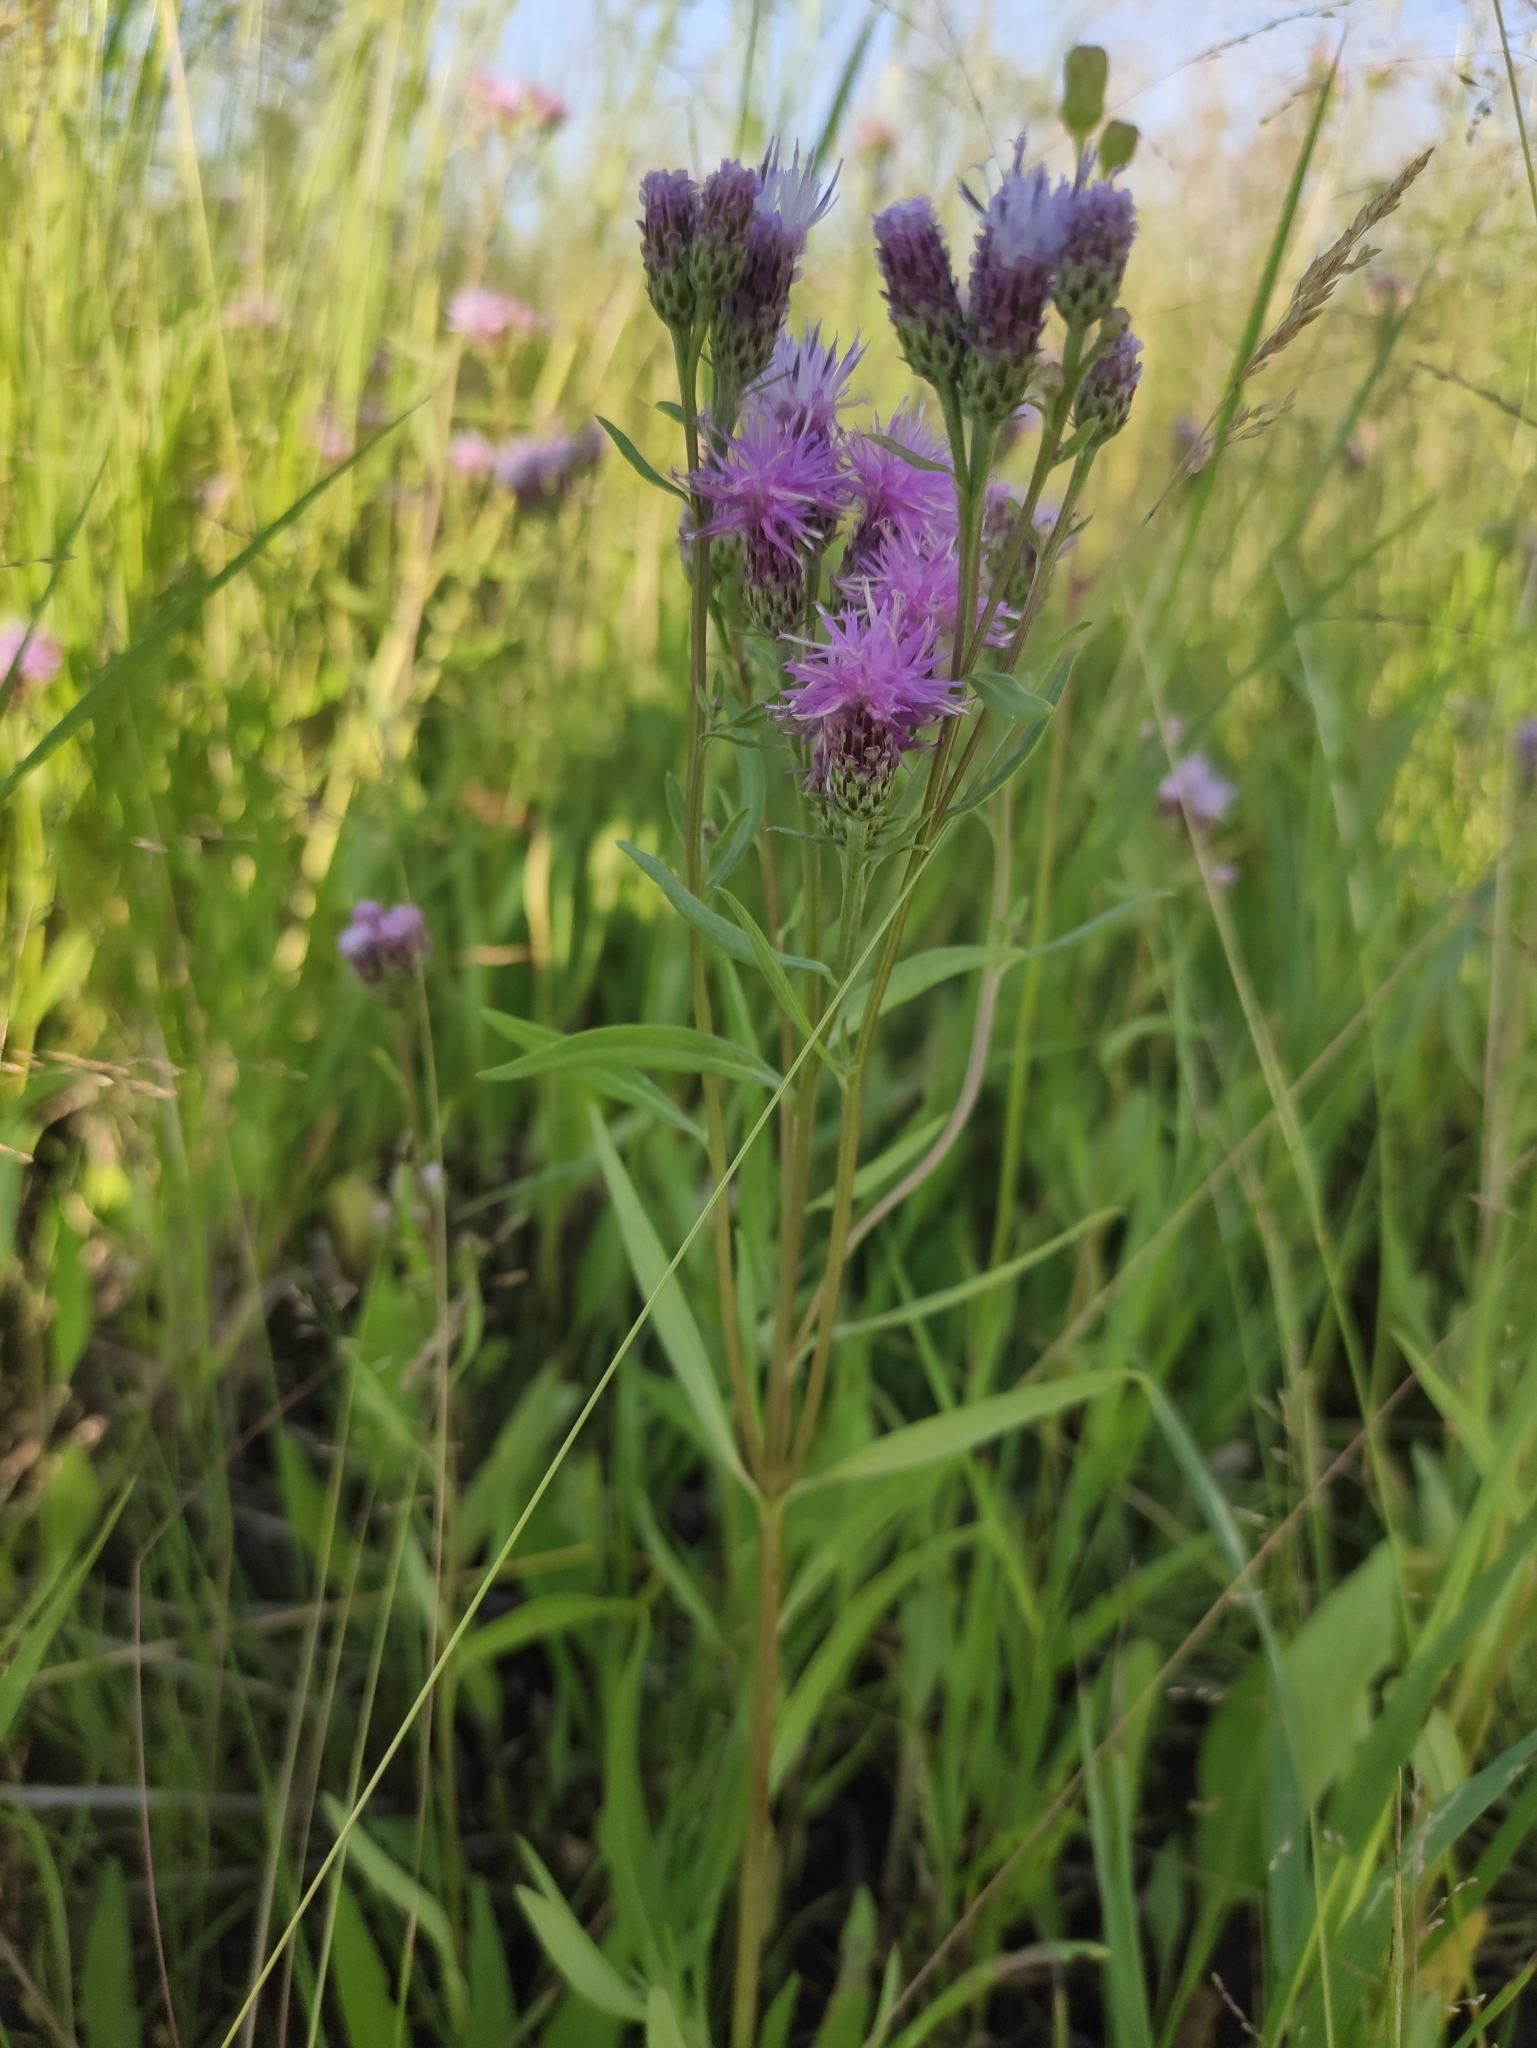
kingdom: Plantae
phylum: Tracheophyta
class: Magnoliopsida
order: Asterales
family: Asteraceae
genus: Saussurea
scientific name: Saussurea amara
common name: Alberta sawwort
